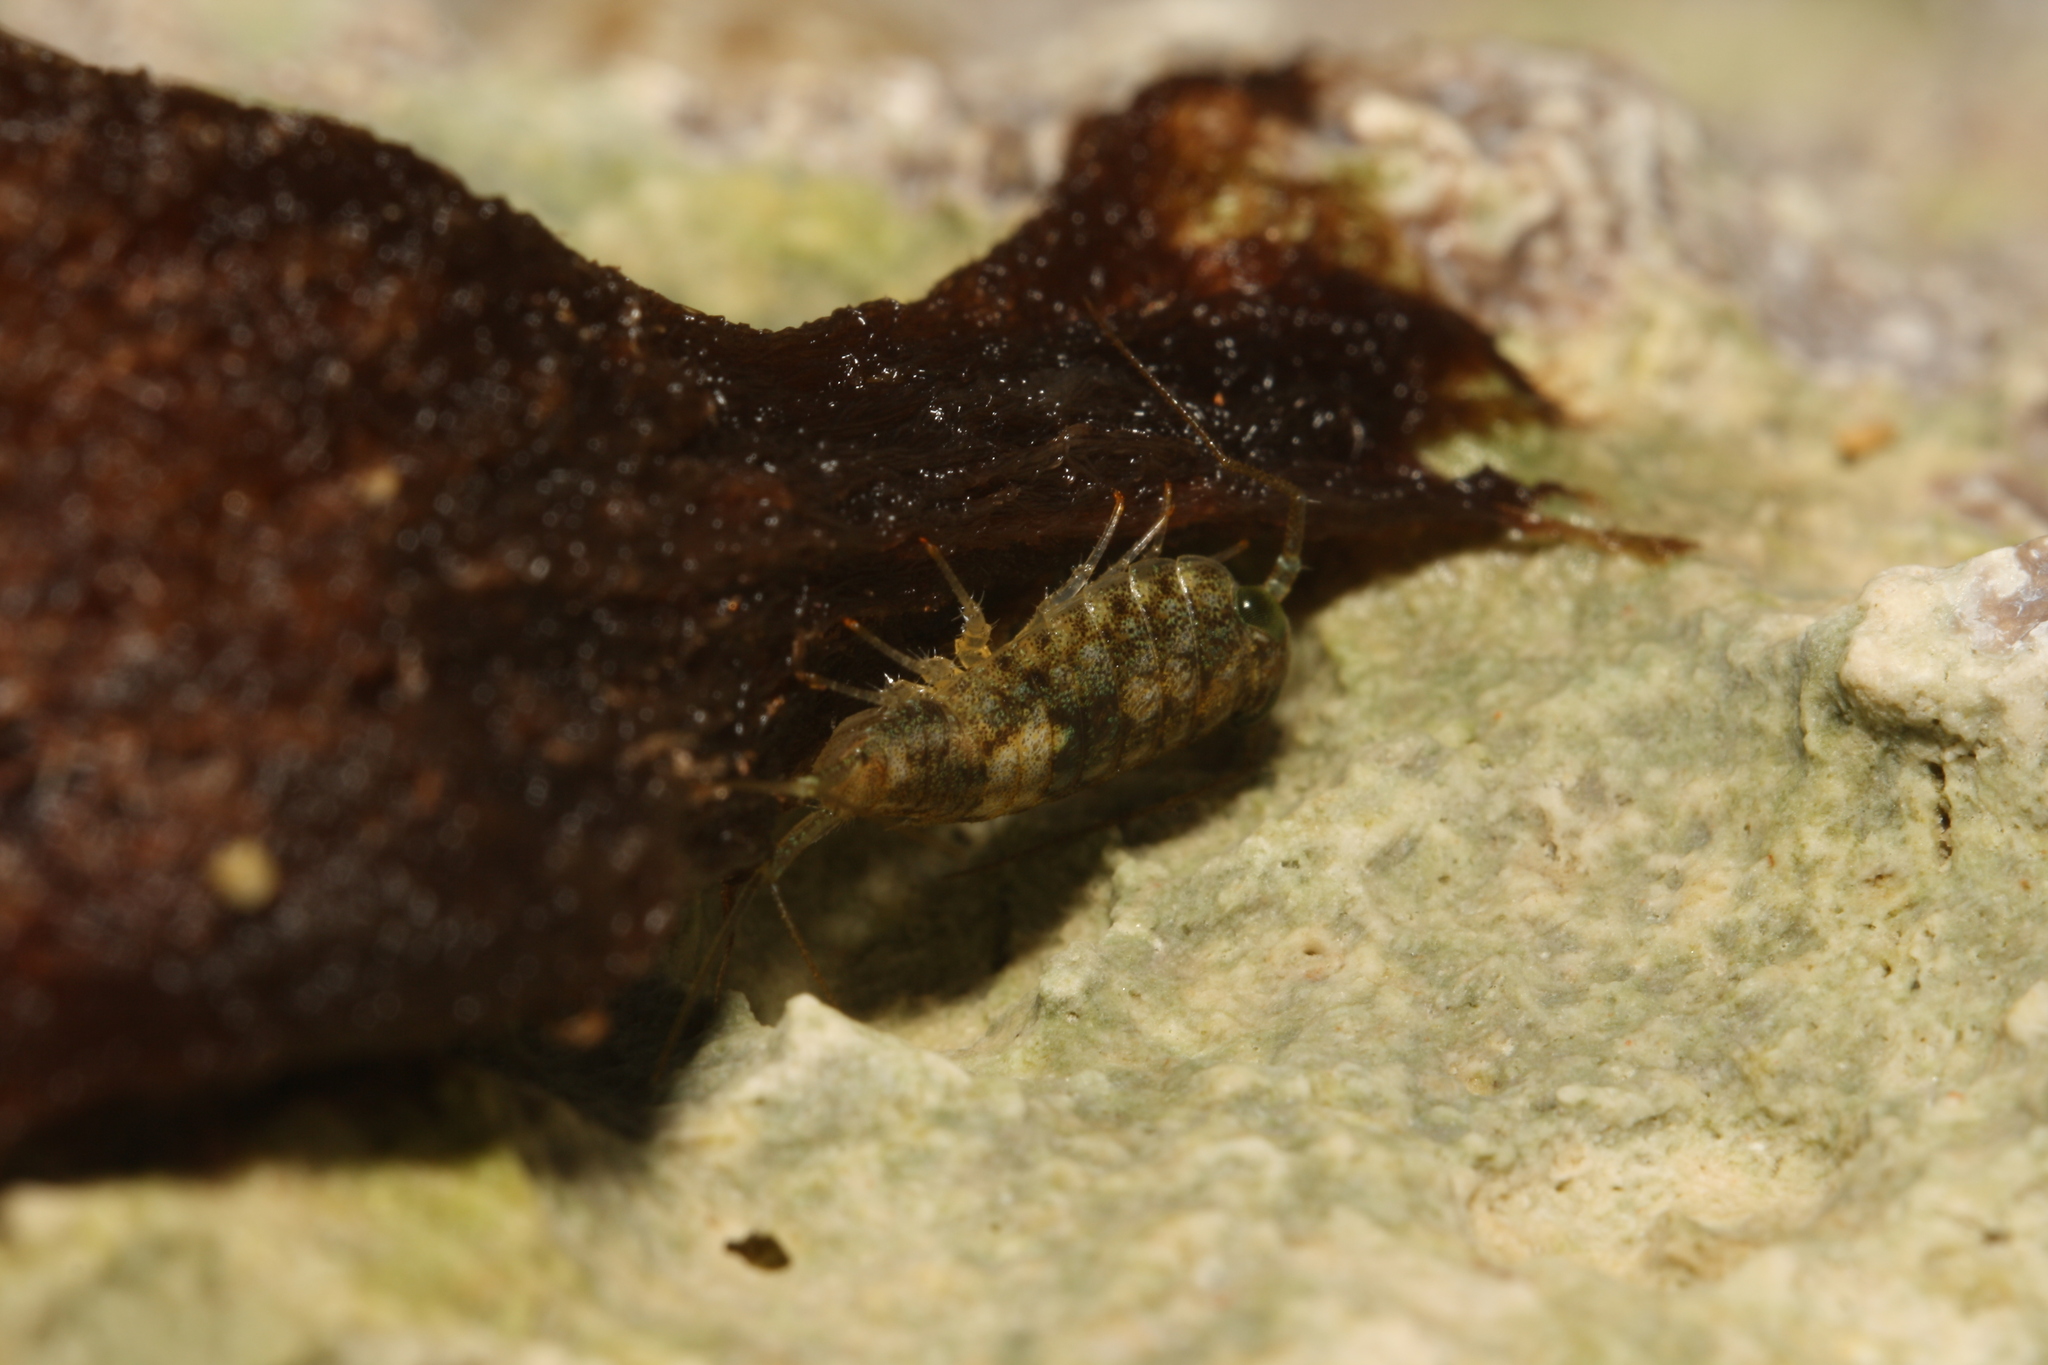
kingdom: Animalia
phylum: Arthropoda
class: Malacostraca
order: Isopoda
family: Ligiidae
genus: Ligia
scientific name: Ligia italica
